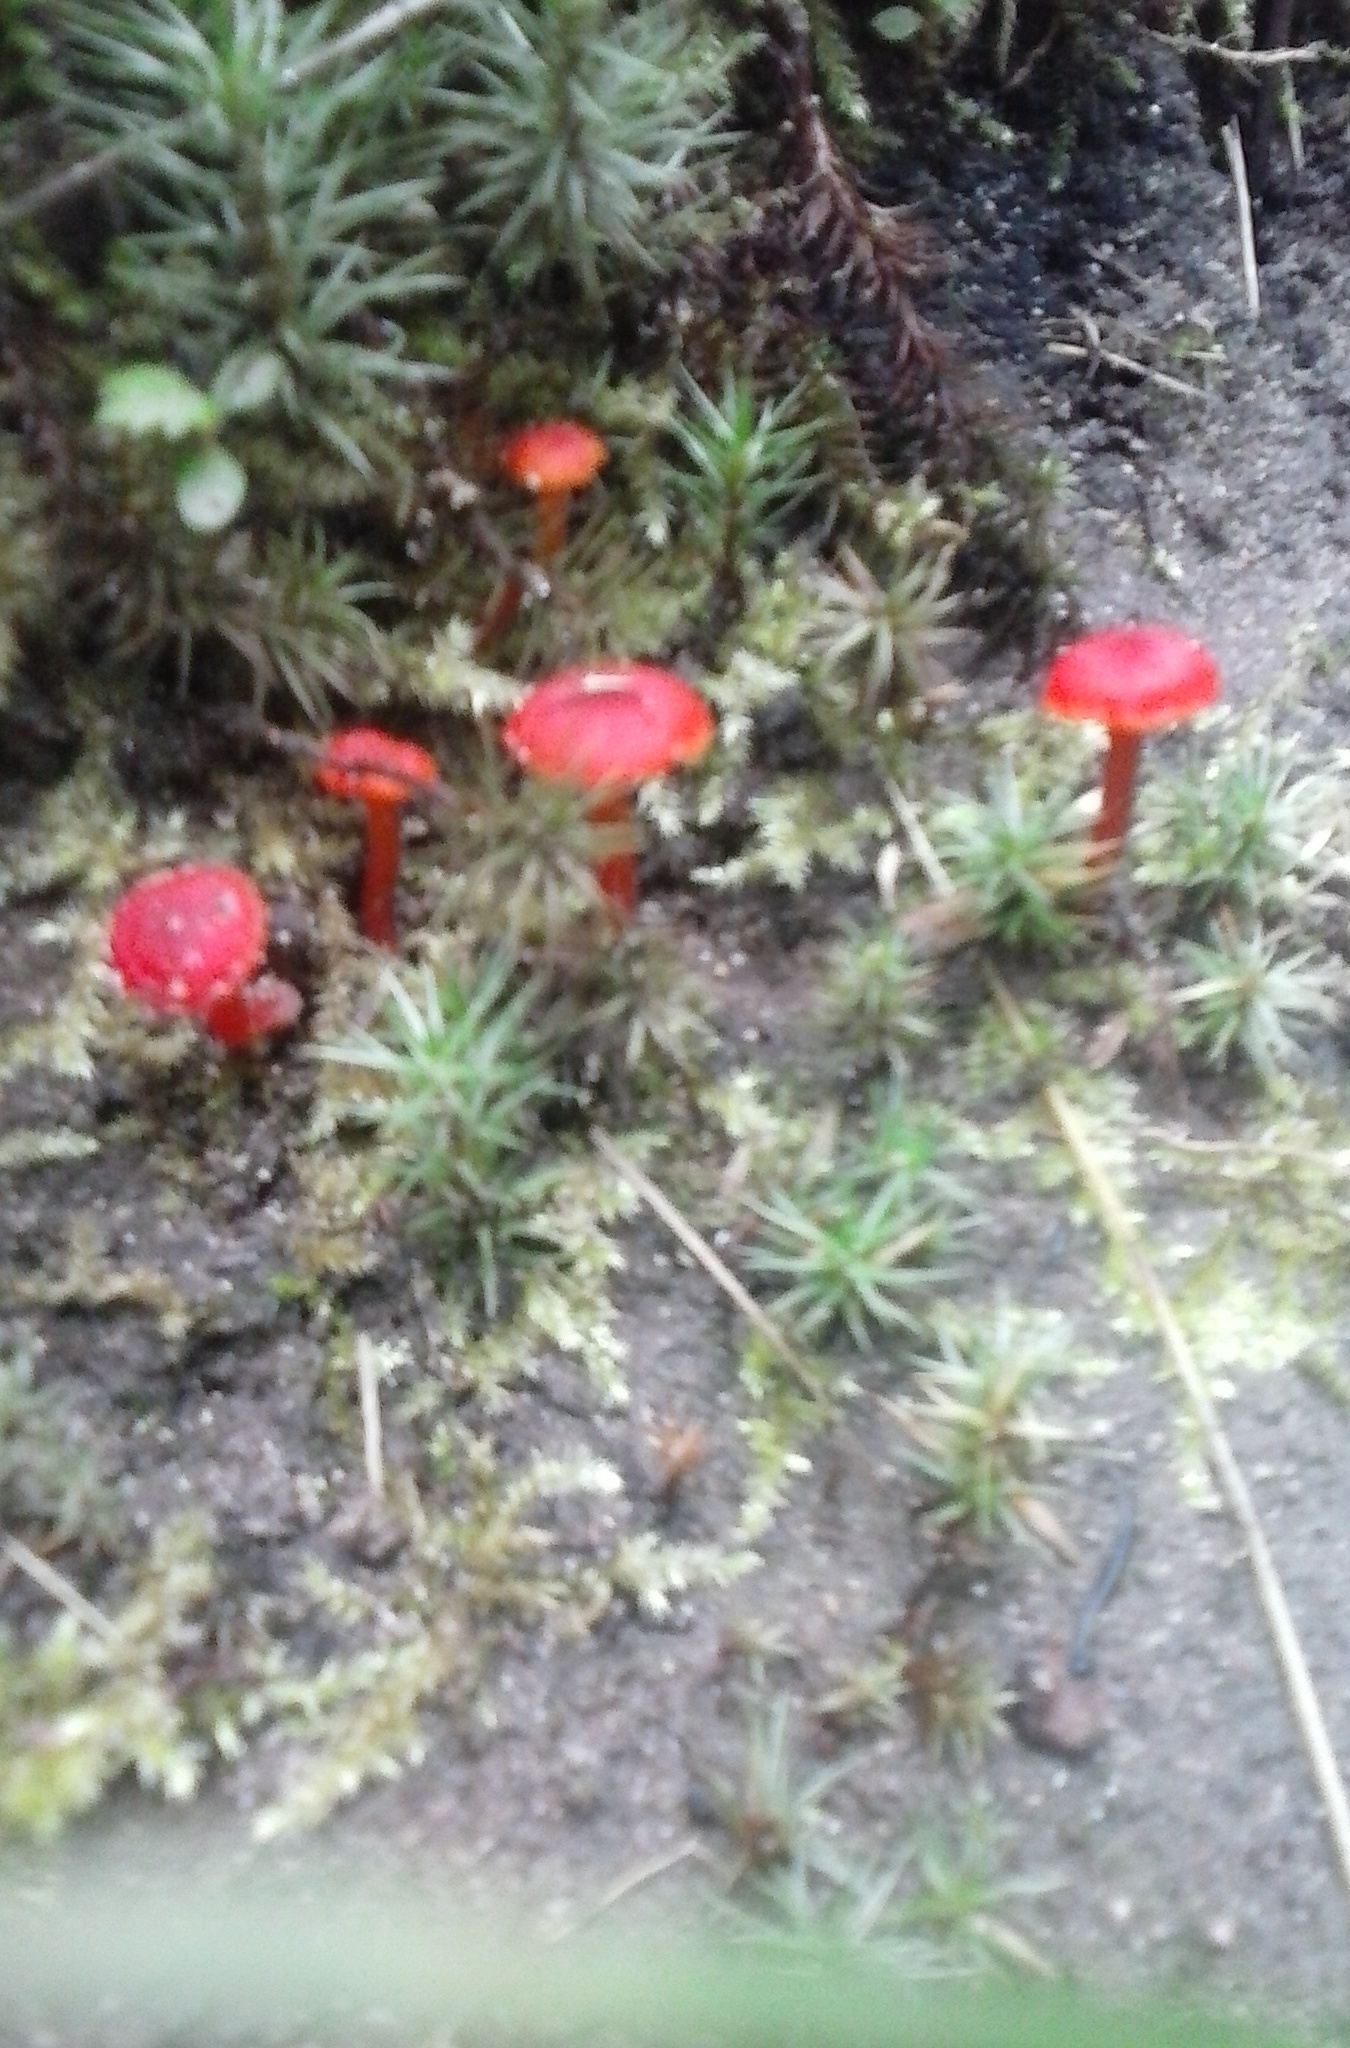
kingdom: Fungi
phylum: Basidiomycota
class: Agaricomycetes
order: Agaricales
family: Hygrophoraceae
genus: Hygrocybe
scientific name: Hygrocybe phaeococcinea
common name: Shadowed waxcap
